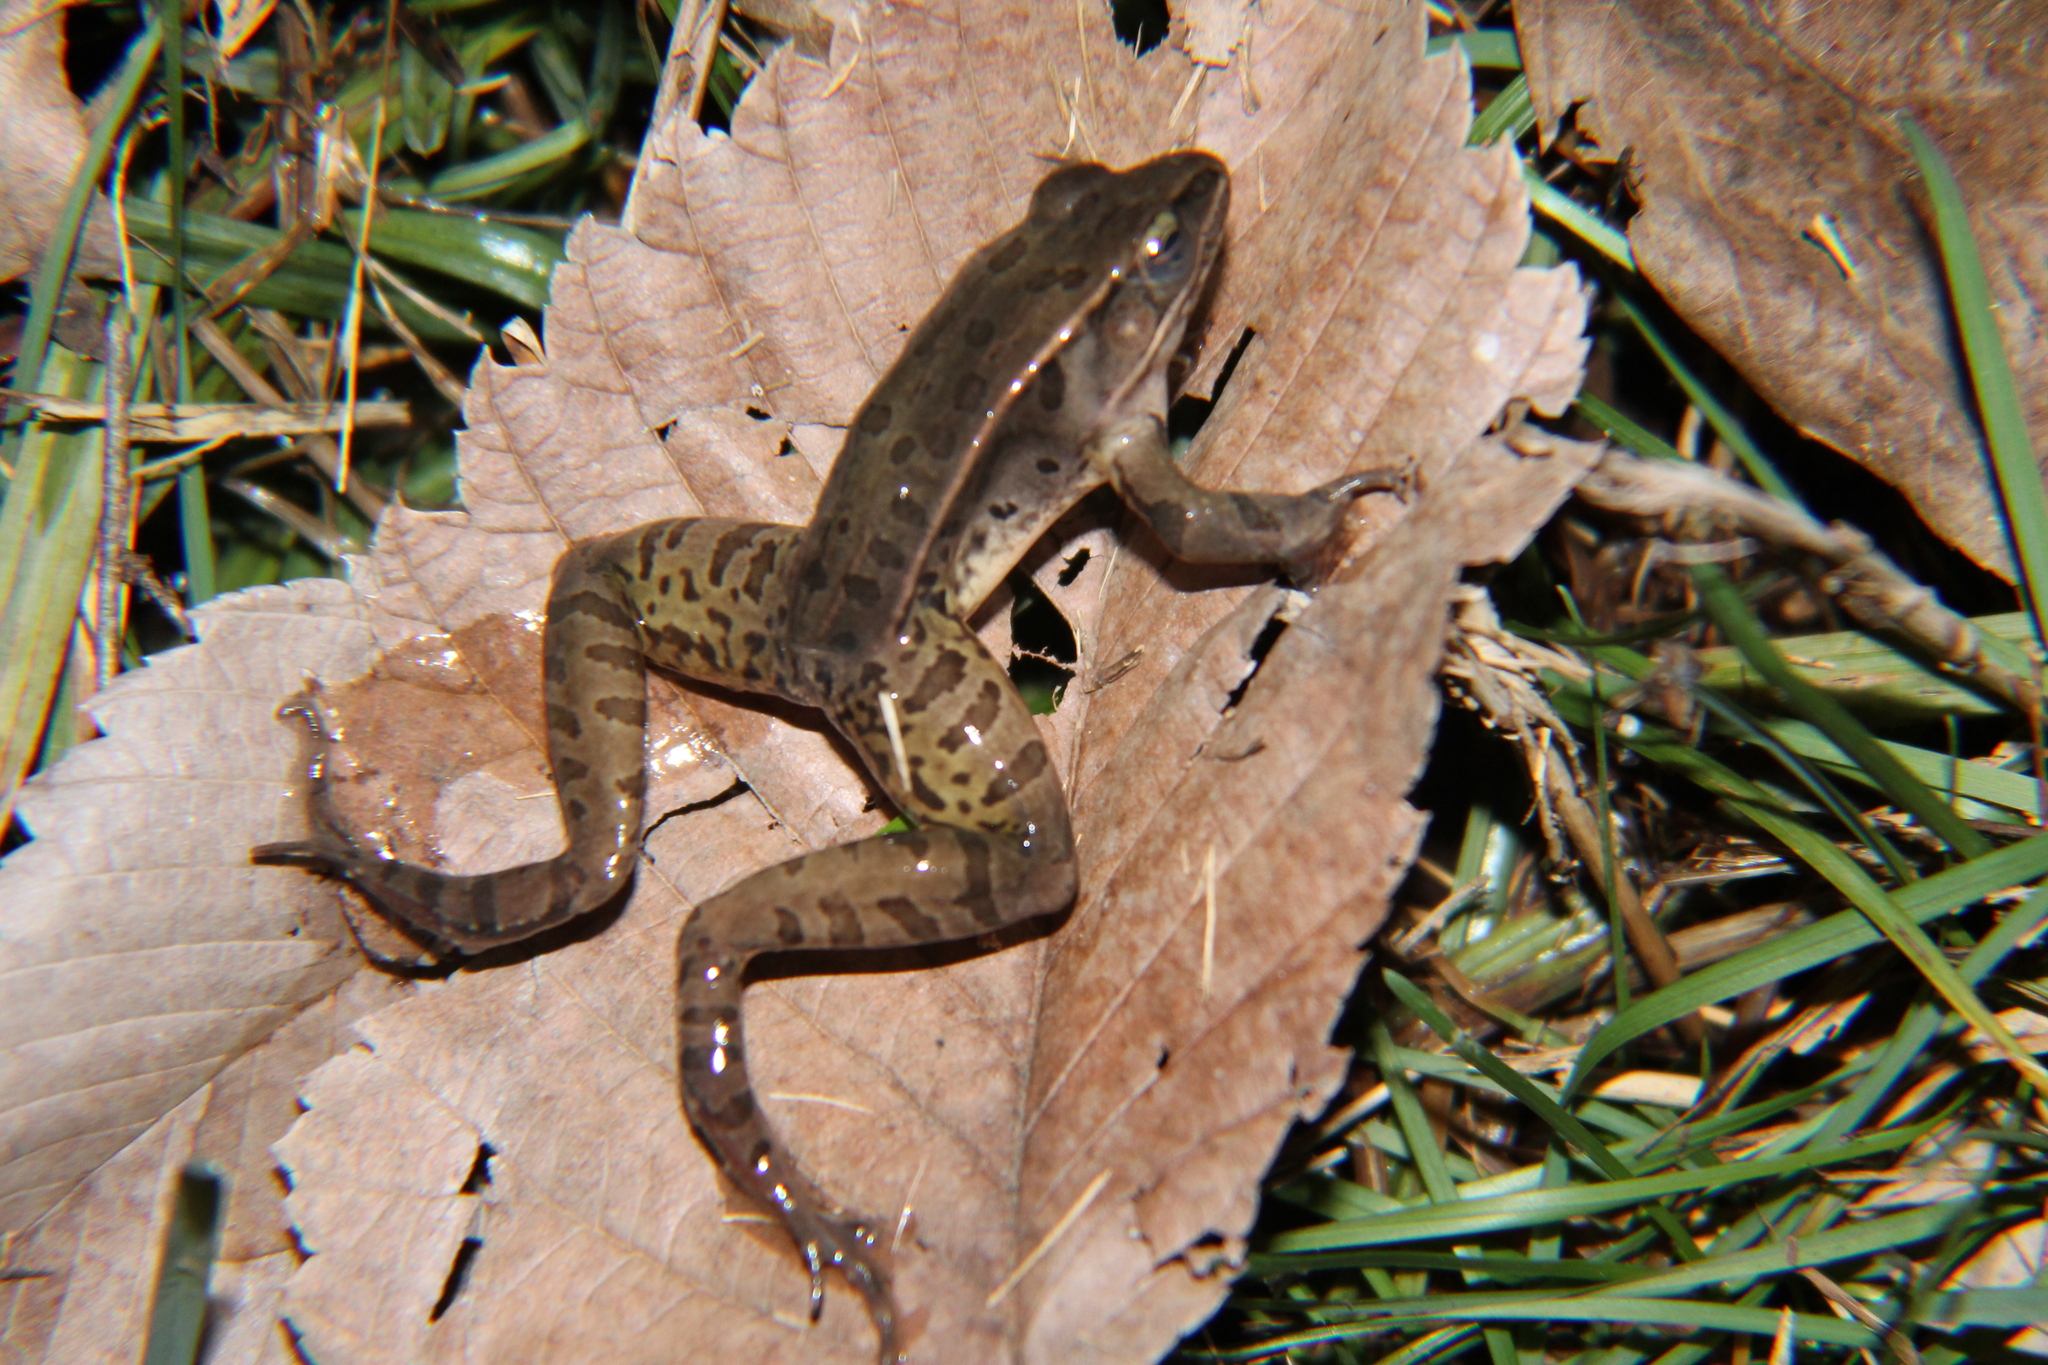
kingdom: Animalia
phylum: Chordata
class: Amphibia
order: Anura
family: Ranidae
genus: Lithobates
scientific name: Lithobates sphenocephalus
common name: Southern leopard frog
